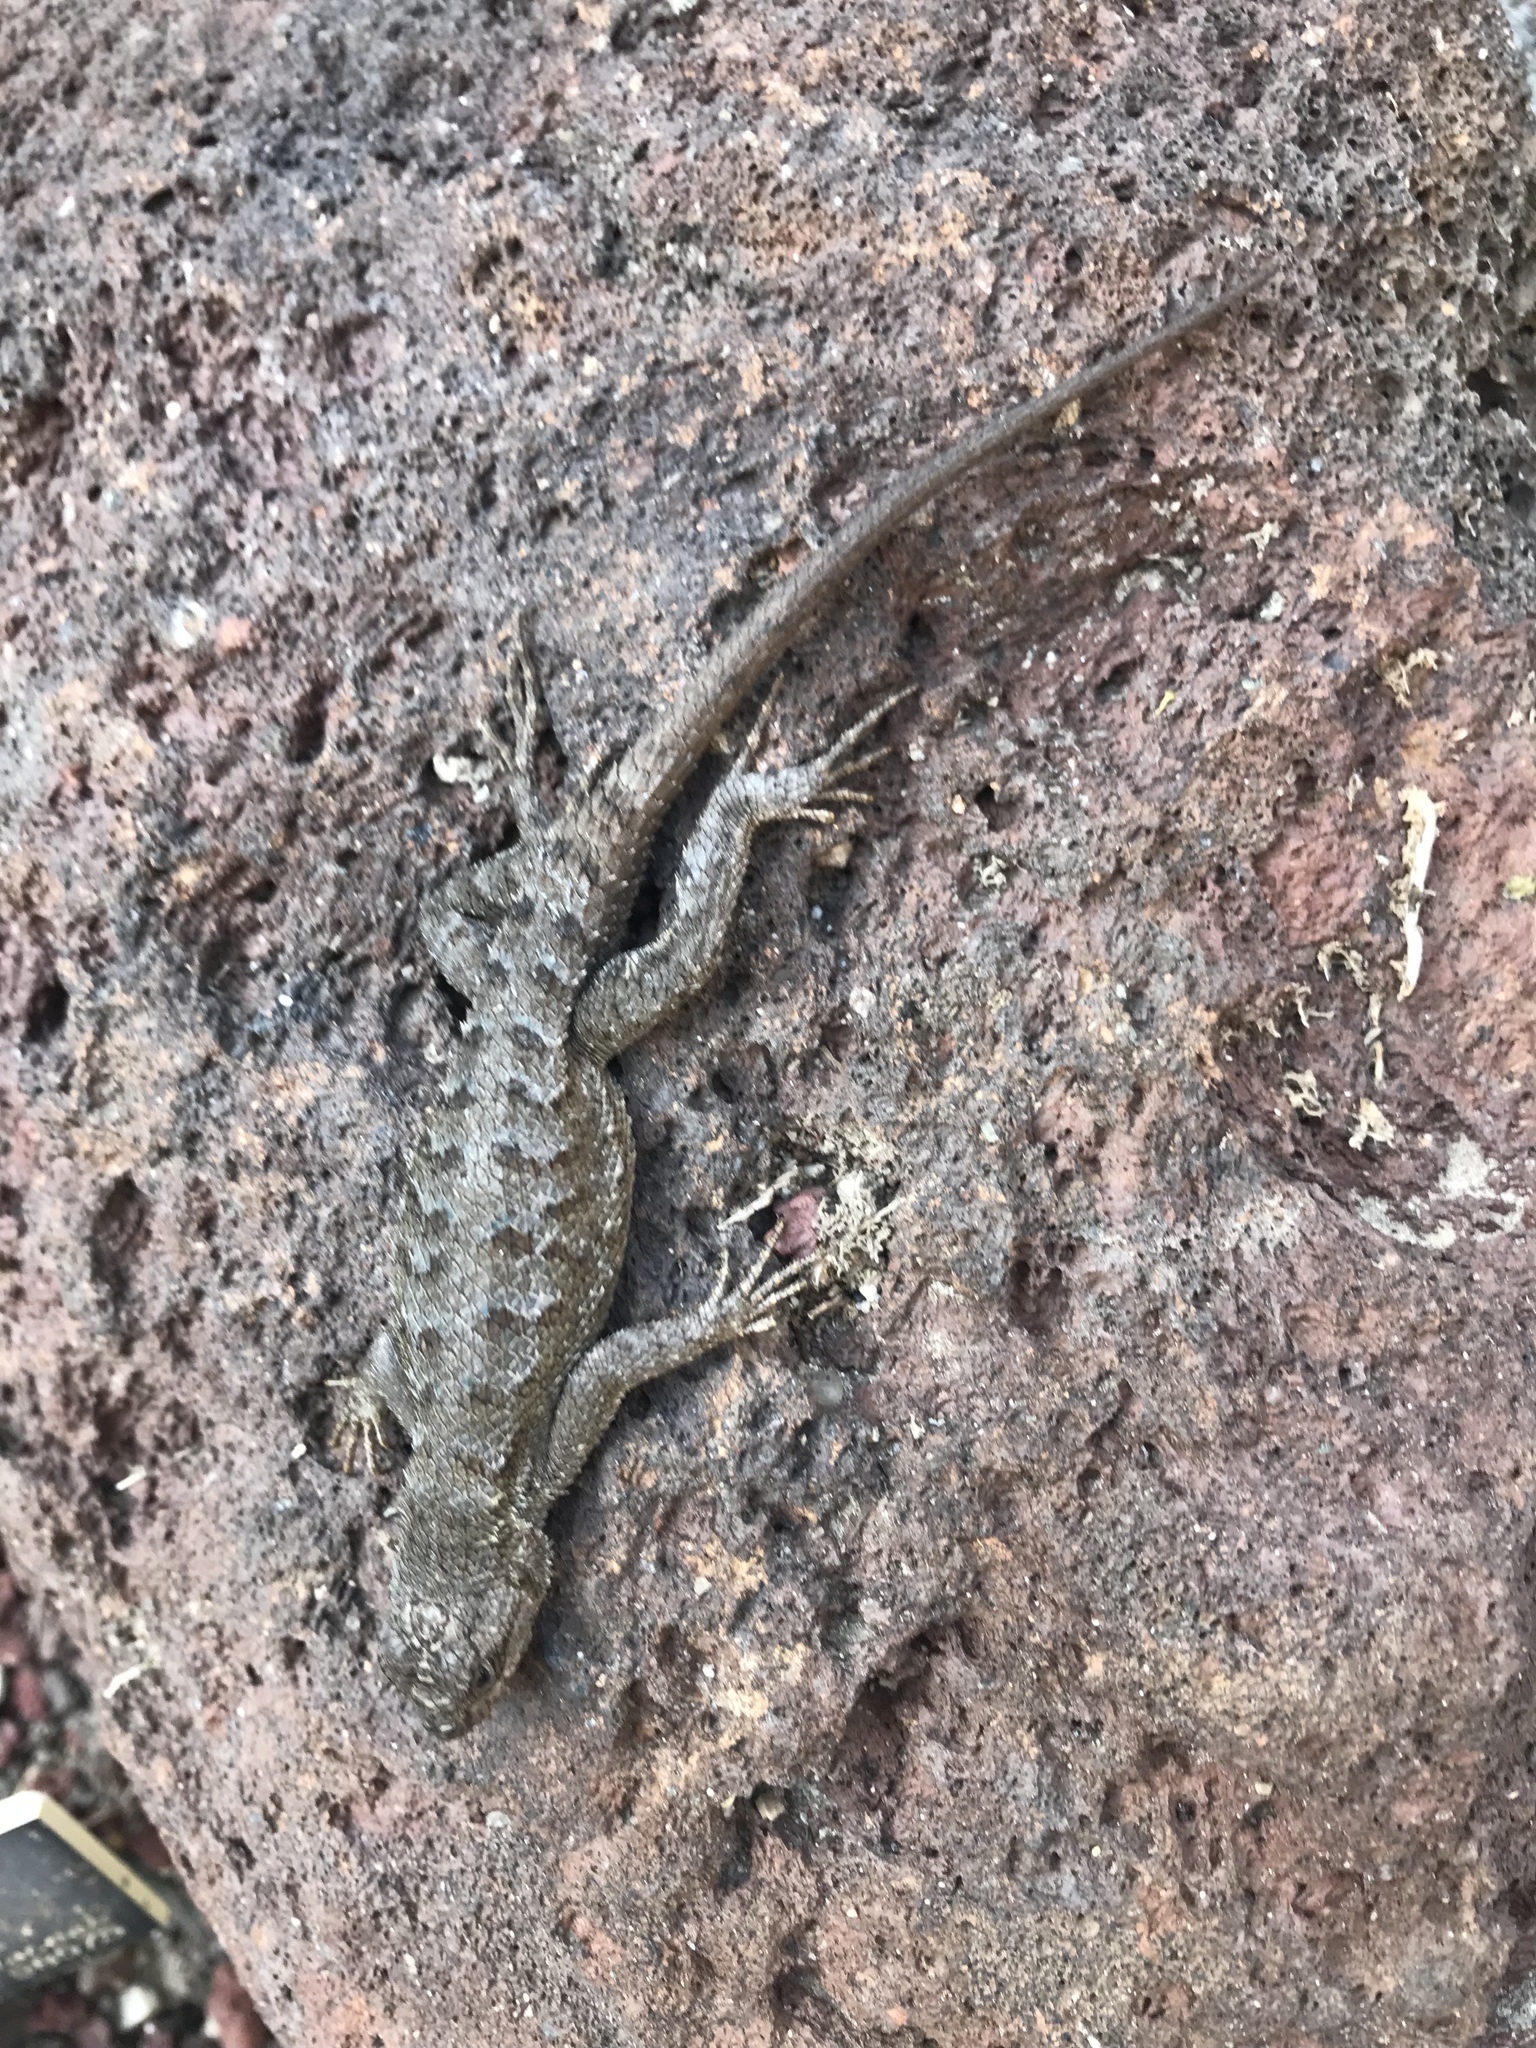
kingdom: Animalia
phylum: Chordata
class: Squamata
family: Phrynosomatidae
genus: Sceloporus
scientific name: Sceloporus occidentalis
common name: Western fence lizard
